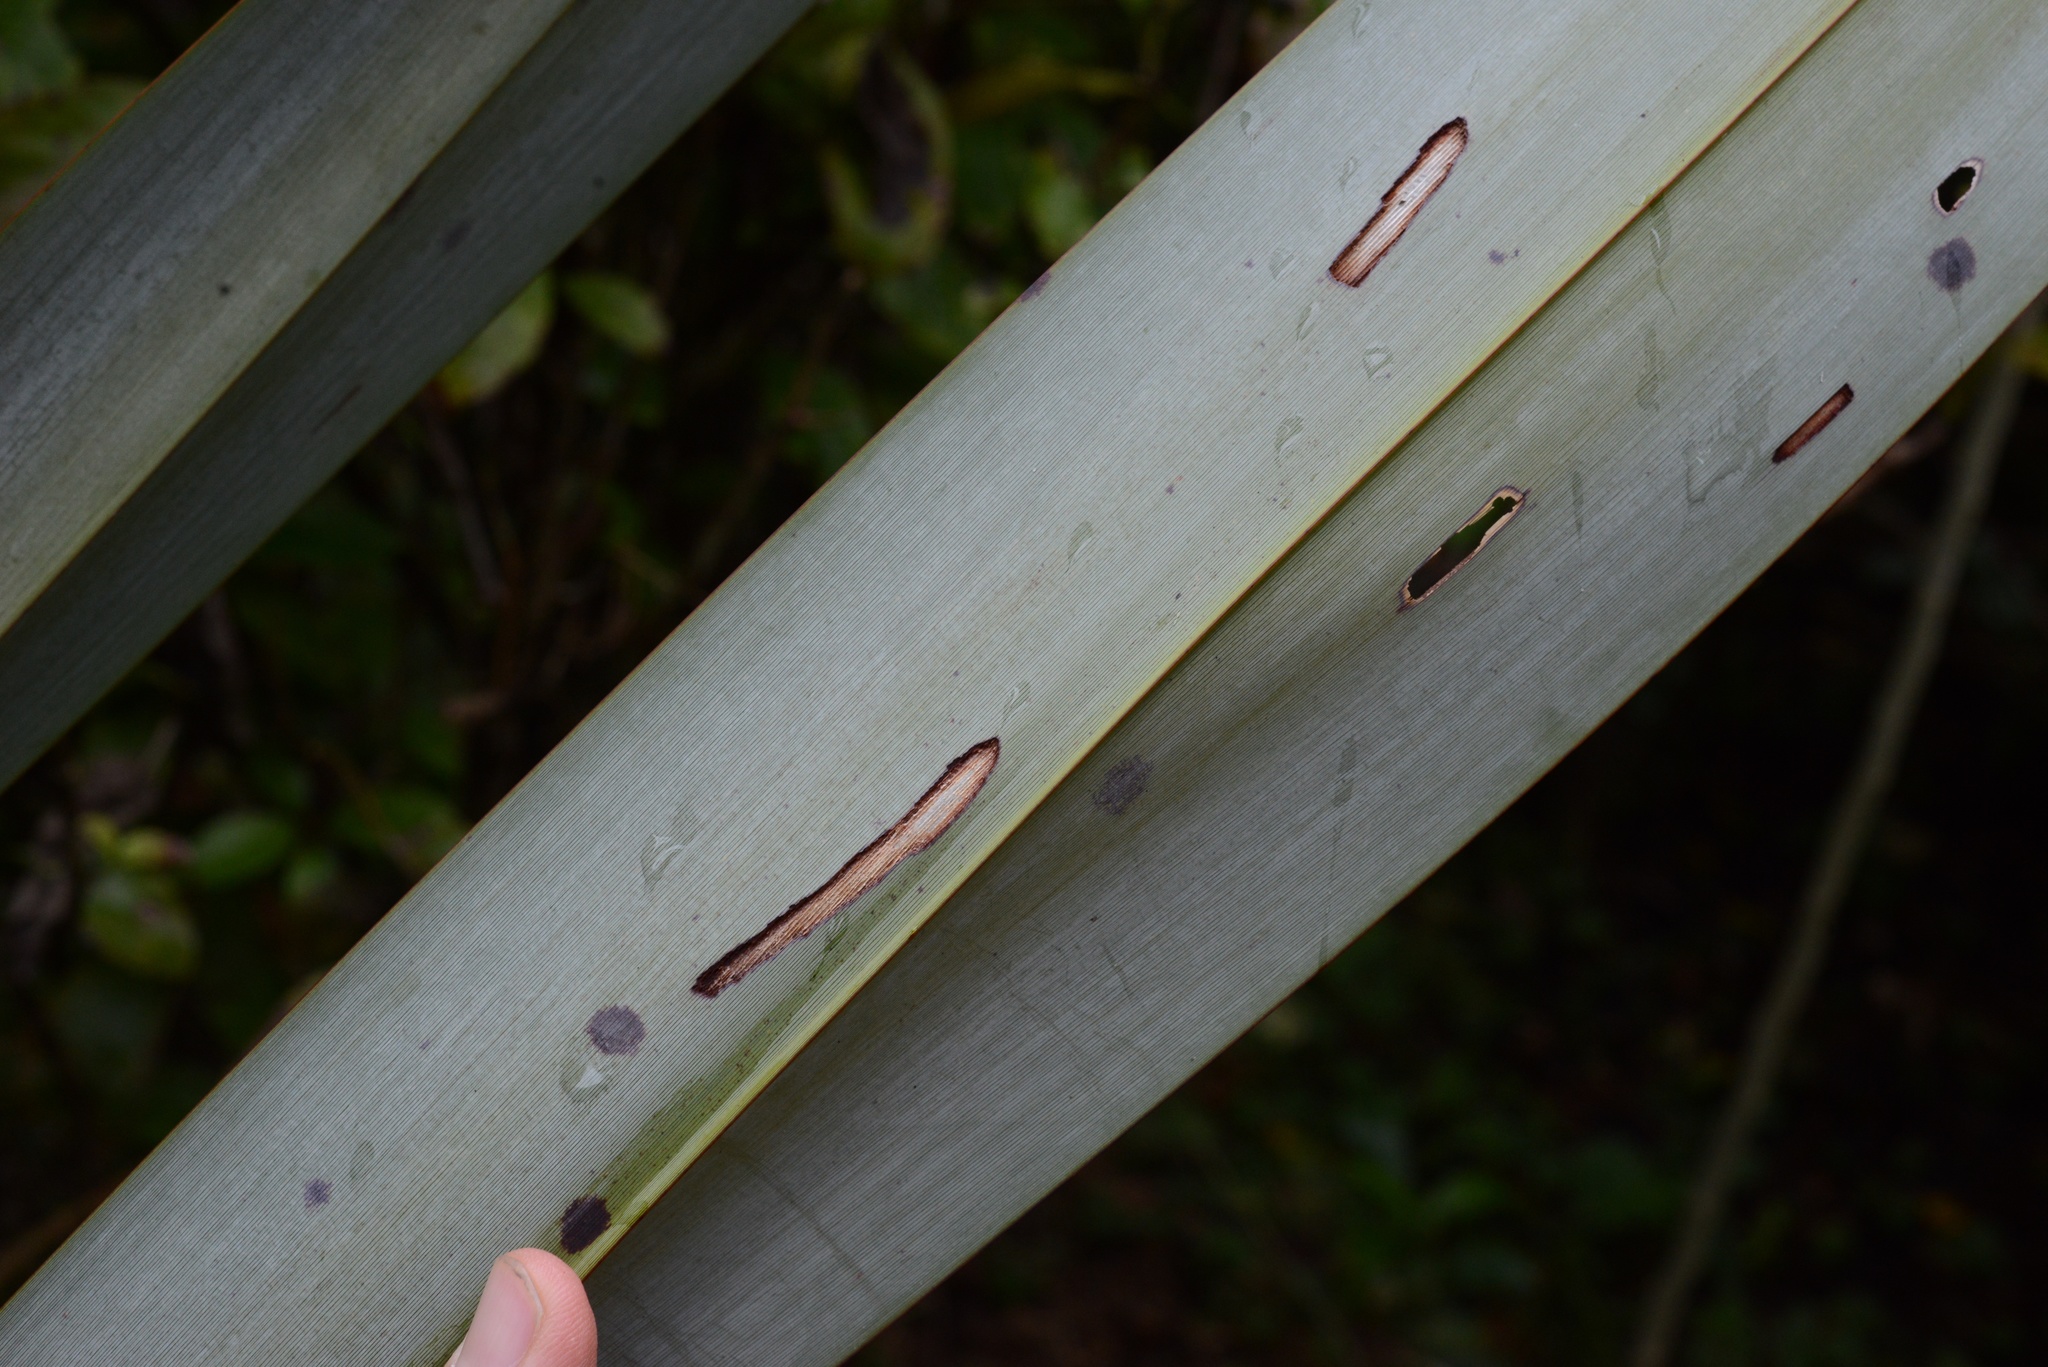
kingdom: Animalia
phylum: Arthropoda
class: Insecta
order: Lepidoptera
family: Geometridae
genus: Orthoclydon
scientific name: Orthoclydon praefectata
